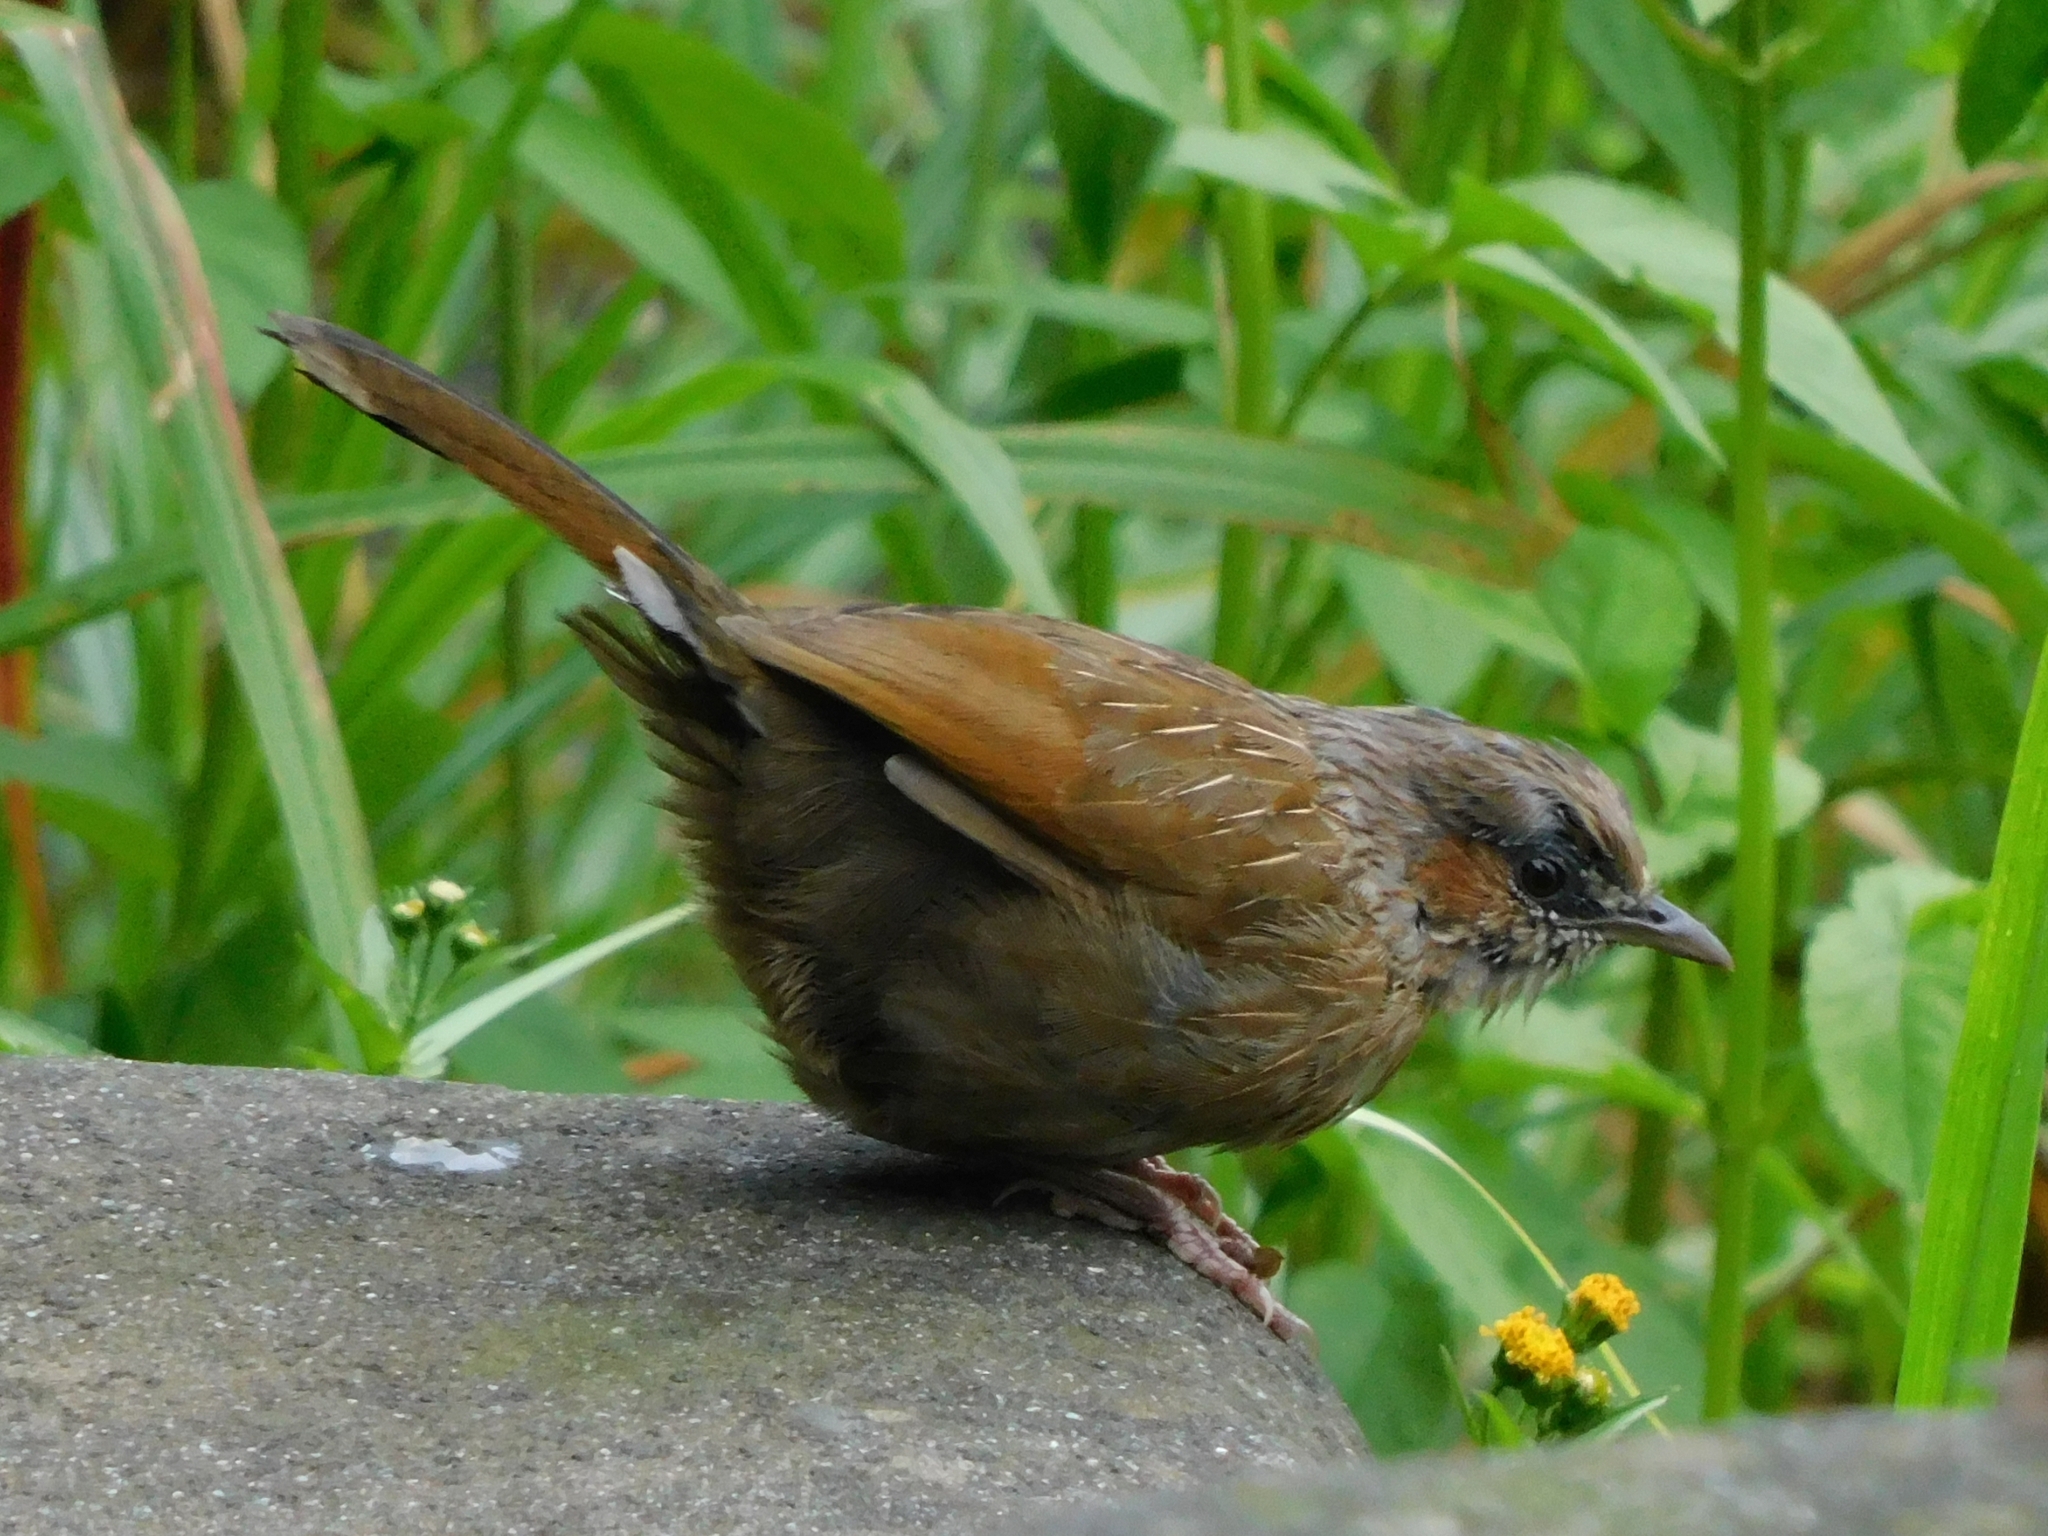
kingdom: Animalia
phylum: Chordata
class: Aves
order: Passeriformes
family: Leiothrichidae
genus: Trochalopteron
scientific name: Trochalopteron lineatum
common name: Streaked laughingthrush
